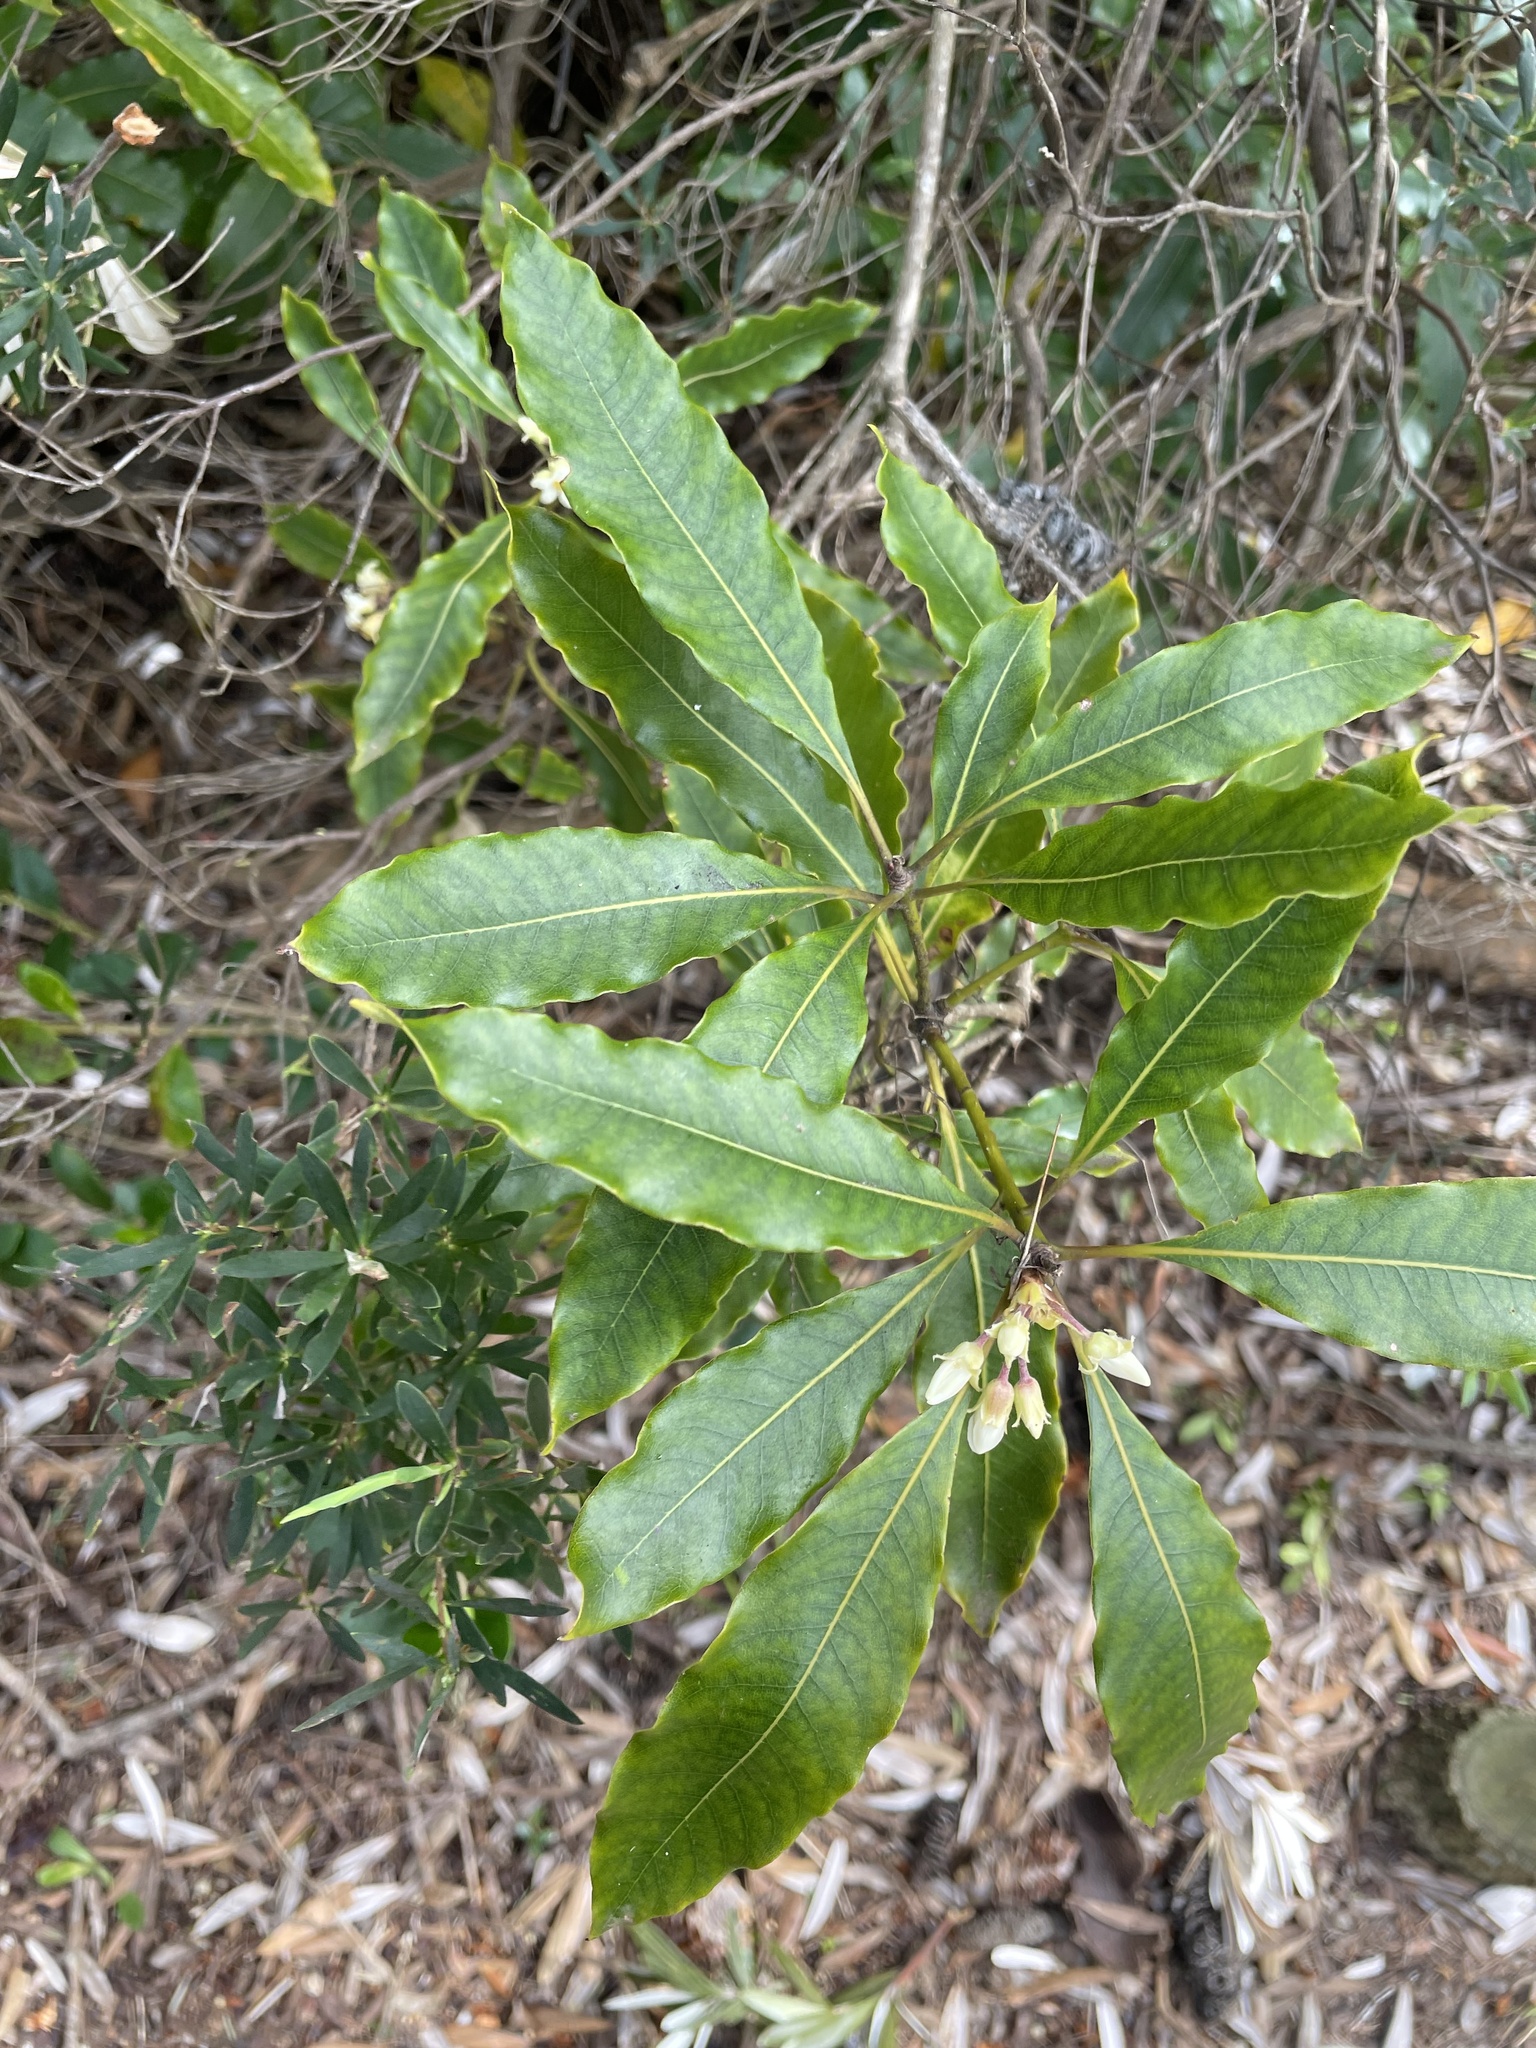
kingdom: Plantae
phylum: Tracheophyta
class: Magnoliopsida
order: Apiales
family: Pittosporaceae
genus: Pittosporum
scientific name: Pittosporum undulatum
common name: Australian cheesewood
